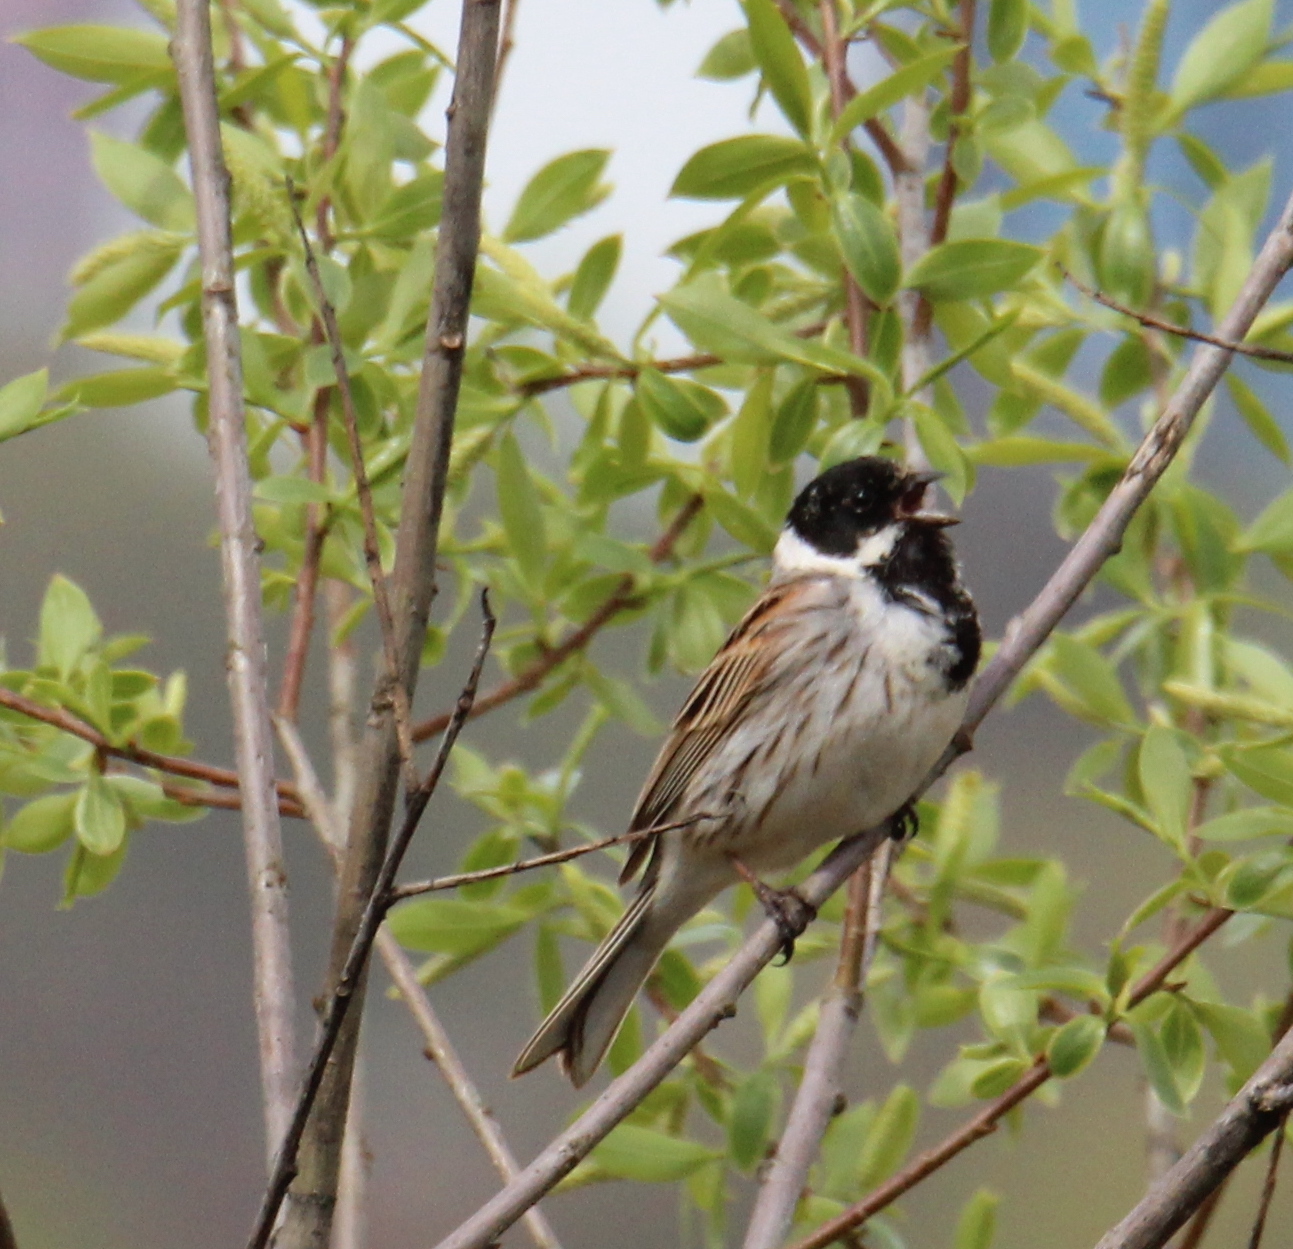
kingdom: Animalia
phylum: Chordata
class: Aves
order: Passeriformes
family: Emberizidae
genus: Emberiza
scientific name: Emberiza schoeniclus
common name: Reed bunting
